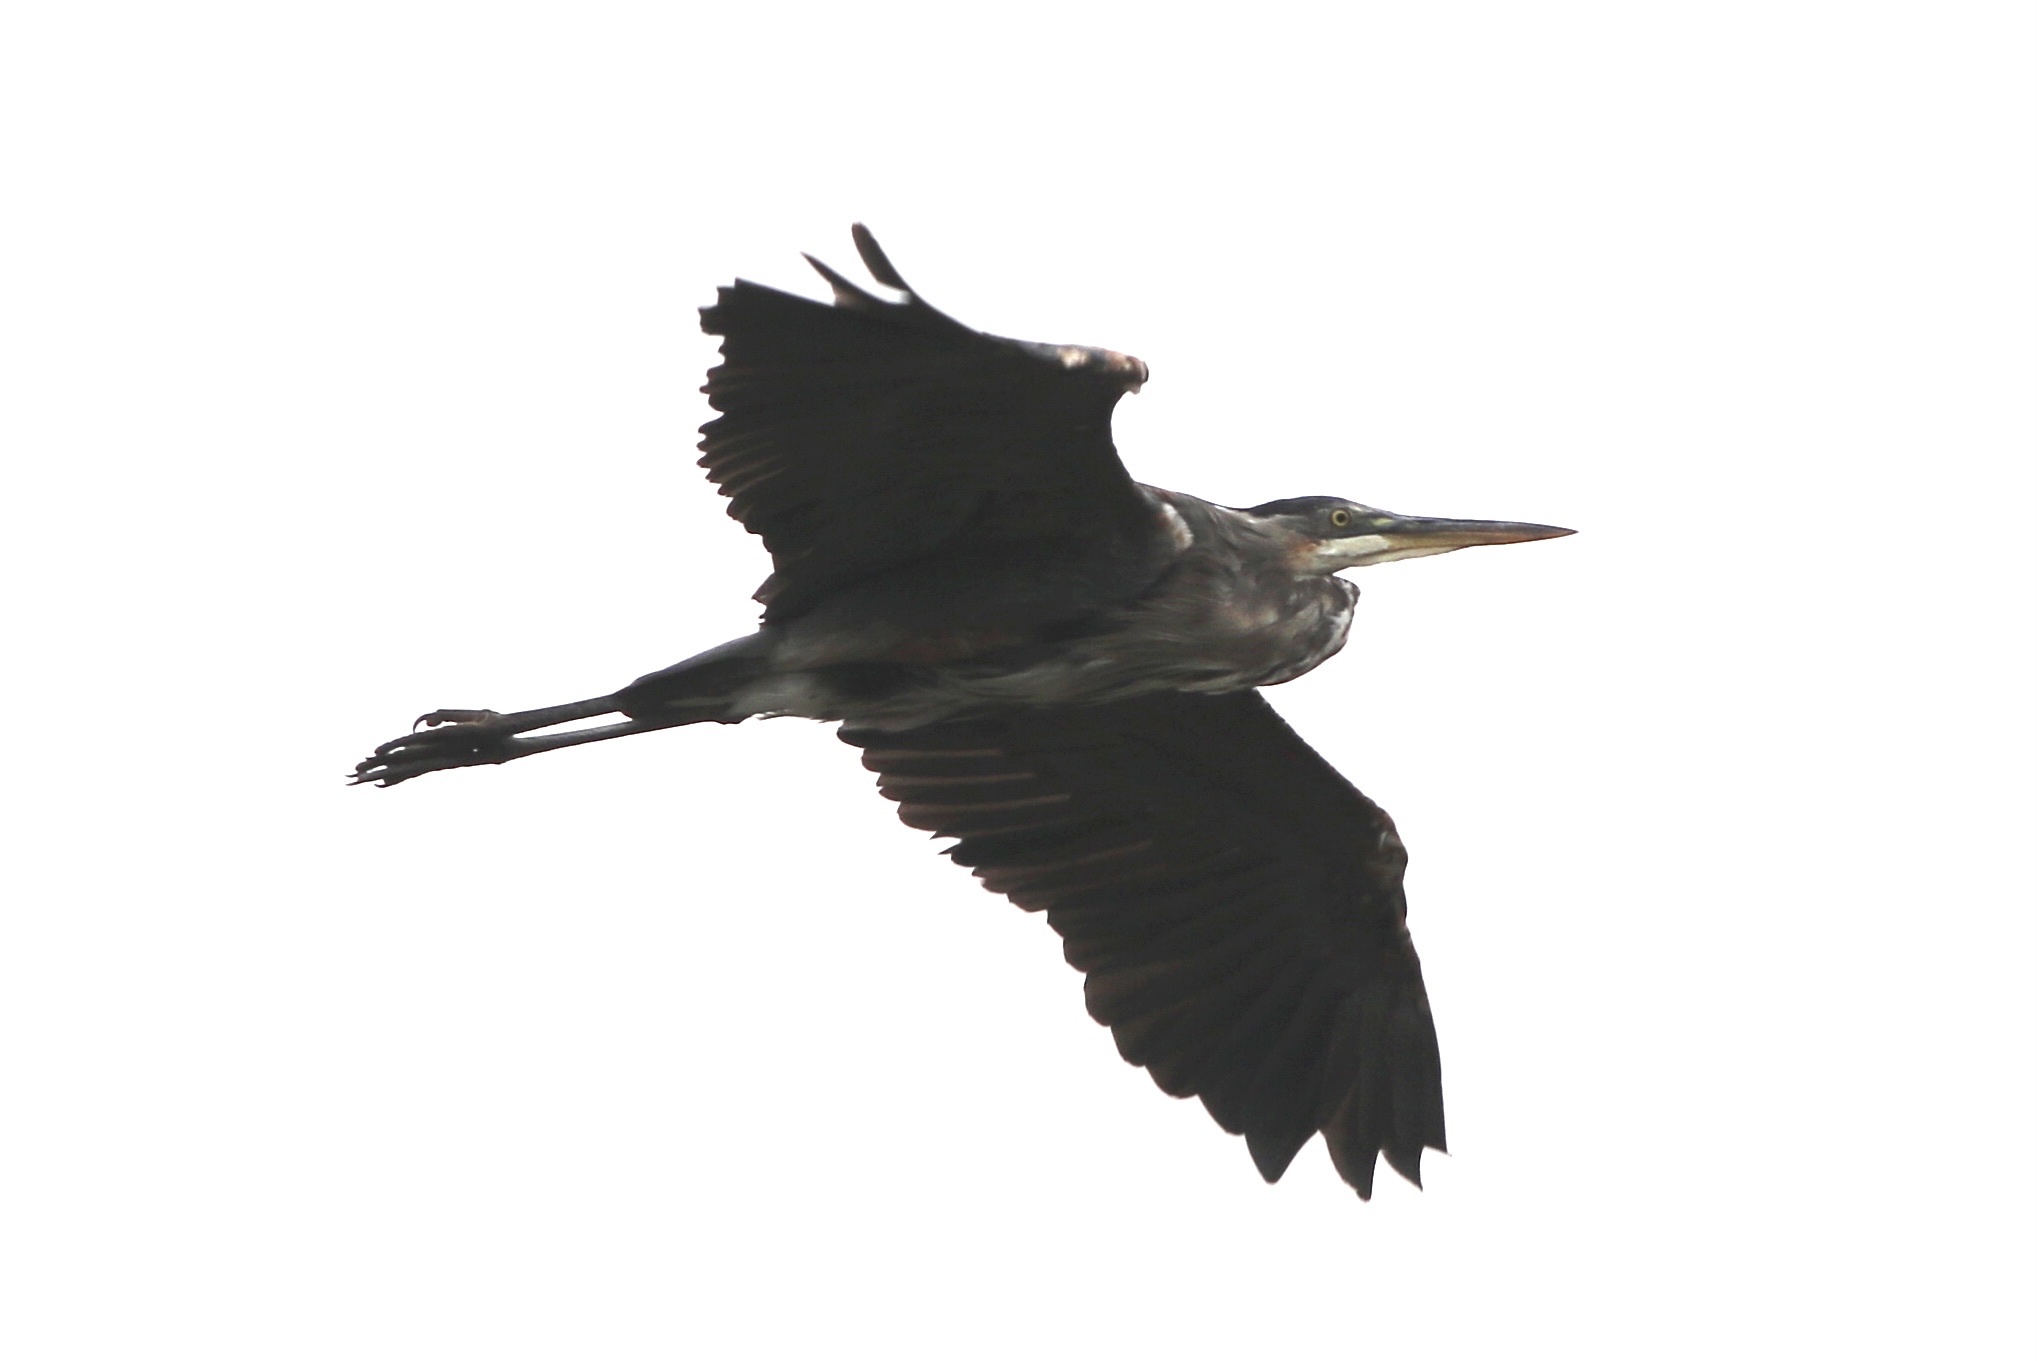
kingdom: Animalia
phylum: Chordata
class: Aves
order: Pelecaniformes
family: Ardeidae
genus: Ardea
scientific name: Ardea herodias
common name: Great blue heron
